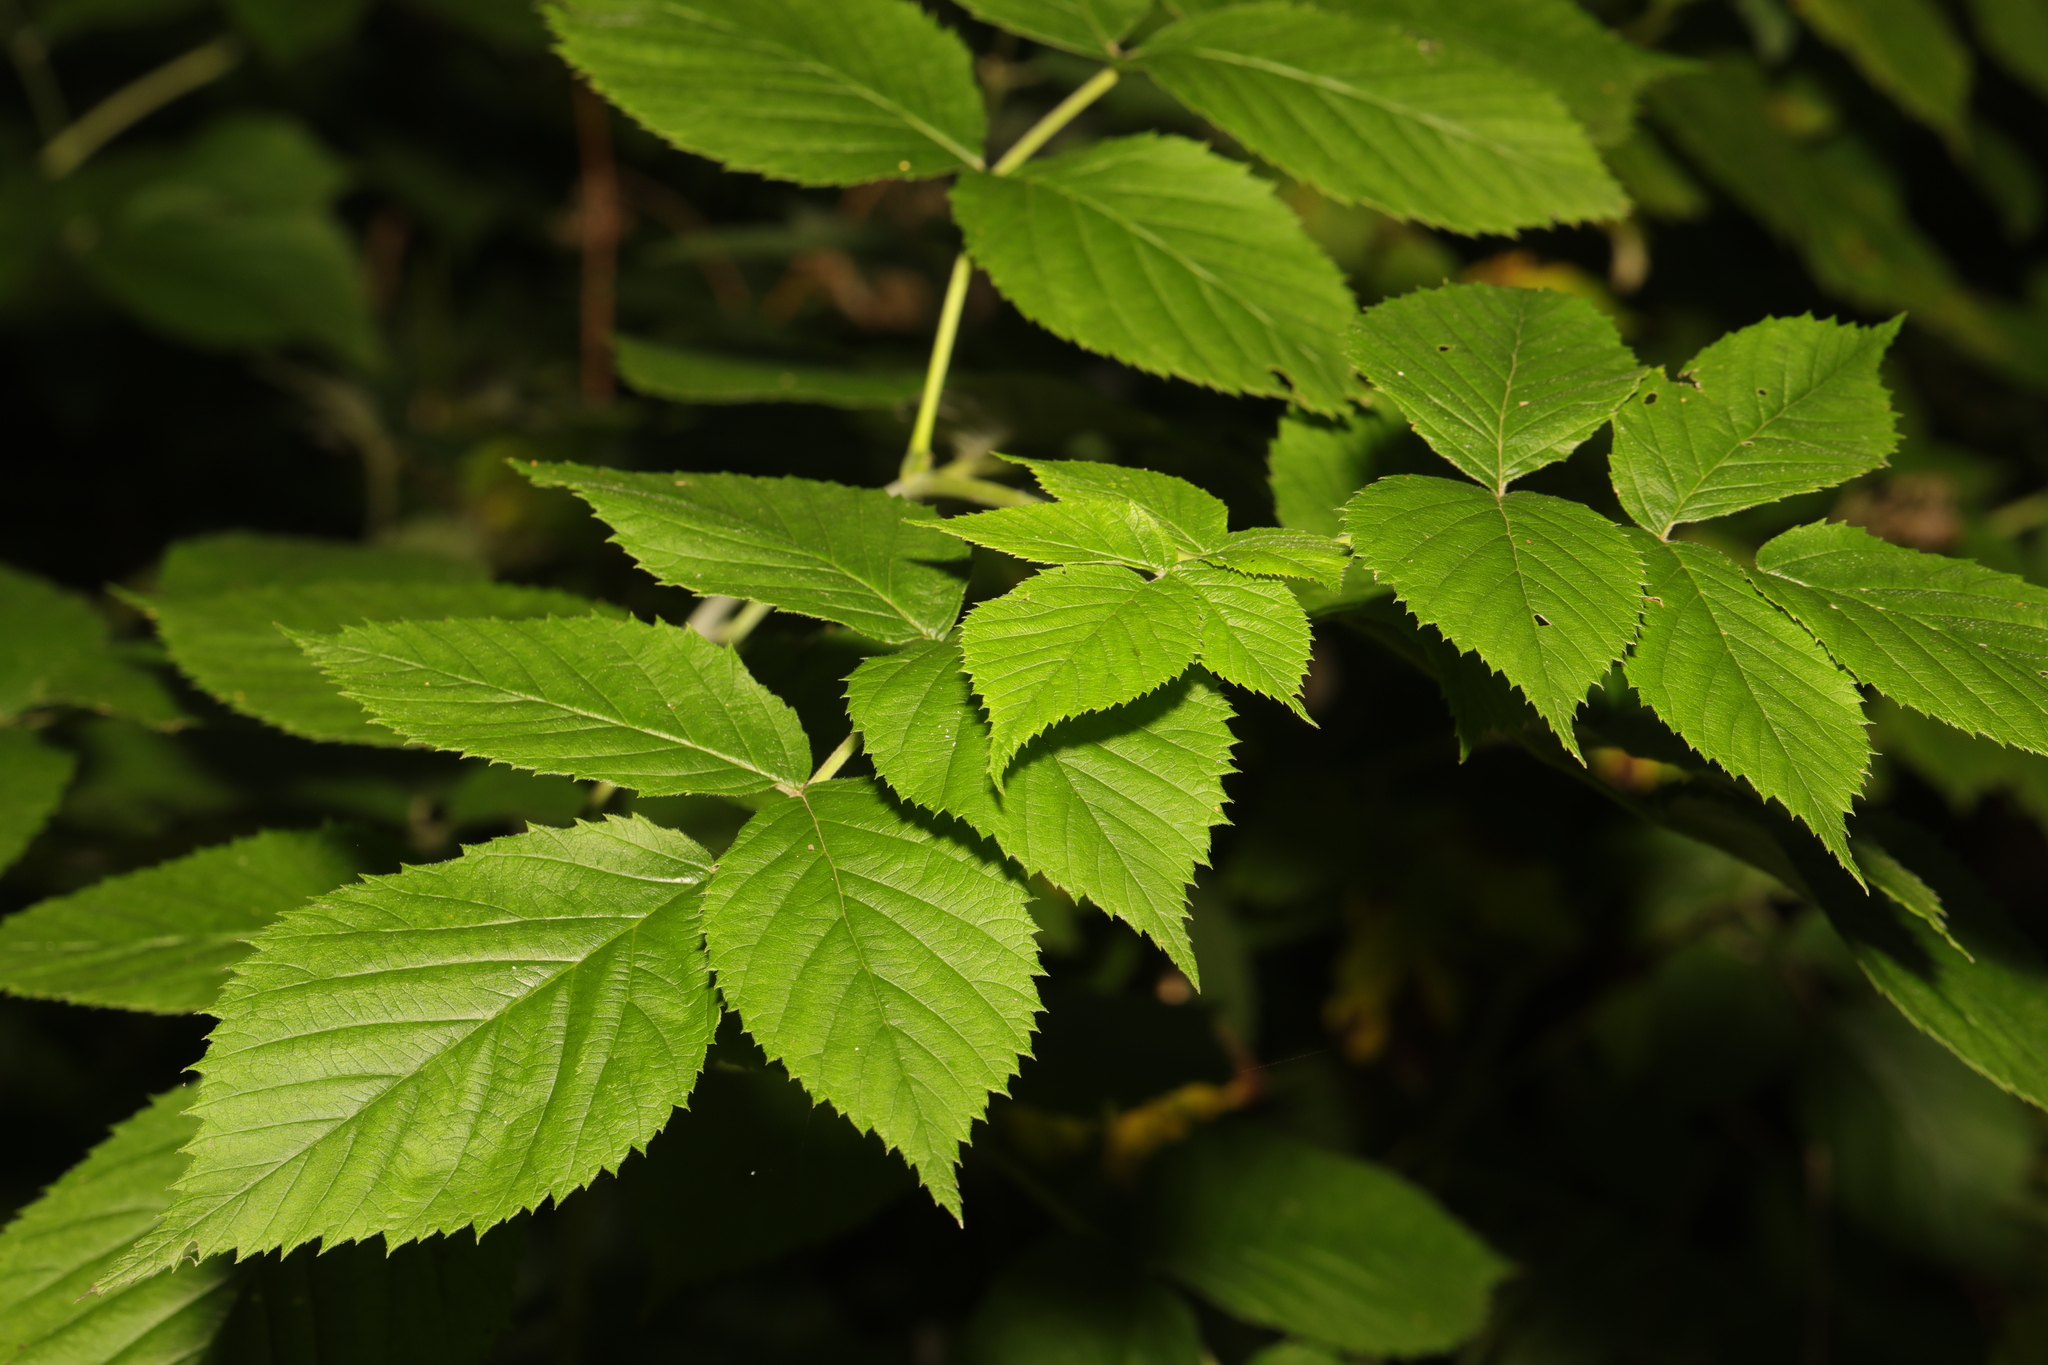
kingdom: Plantae
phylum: Tracheophyta
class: Magnoliopsida
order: Dipsacales
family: Viburnaceae
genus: Sambucus
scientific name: Sambucus nigra
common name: Elder
